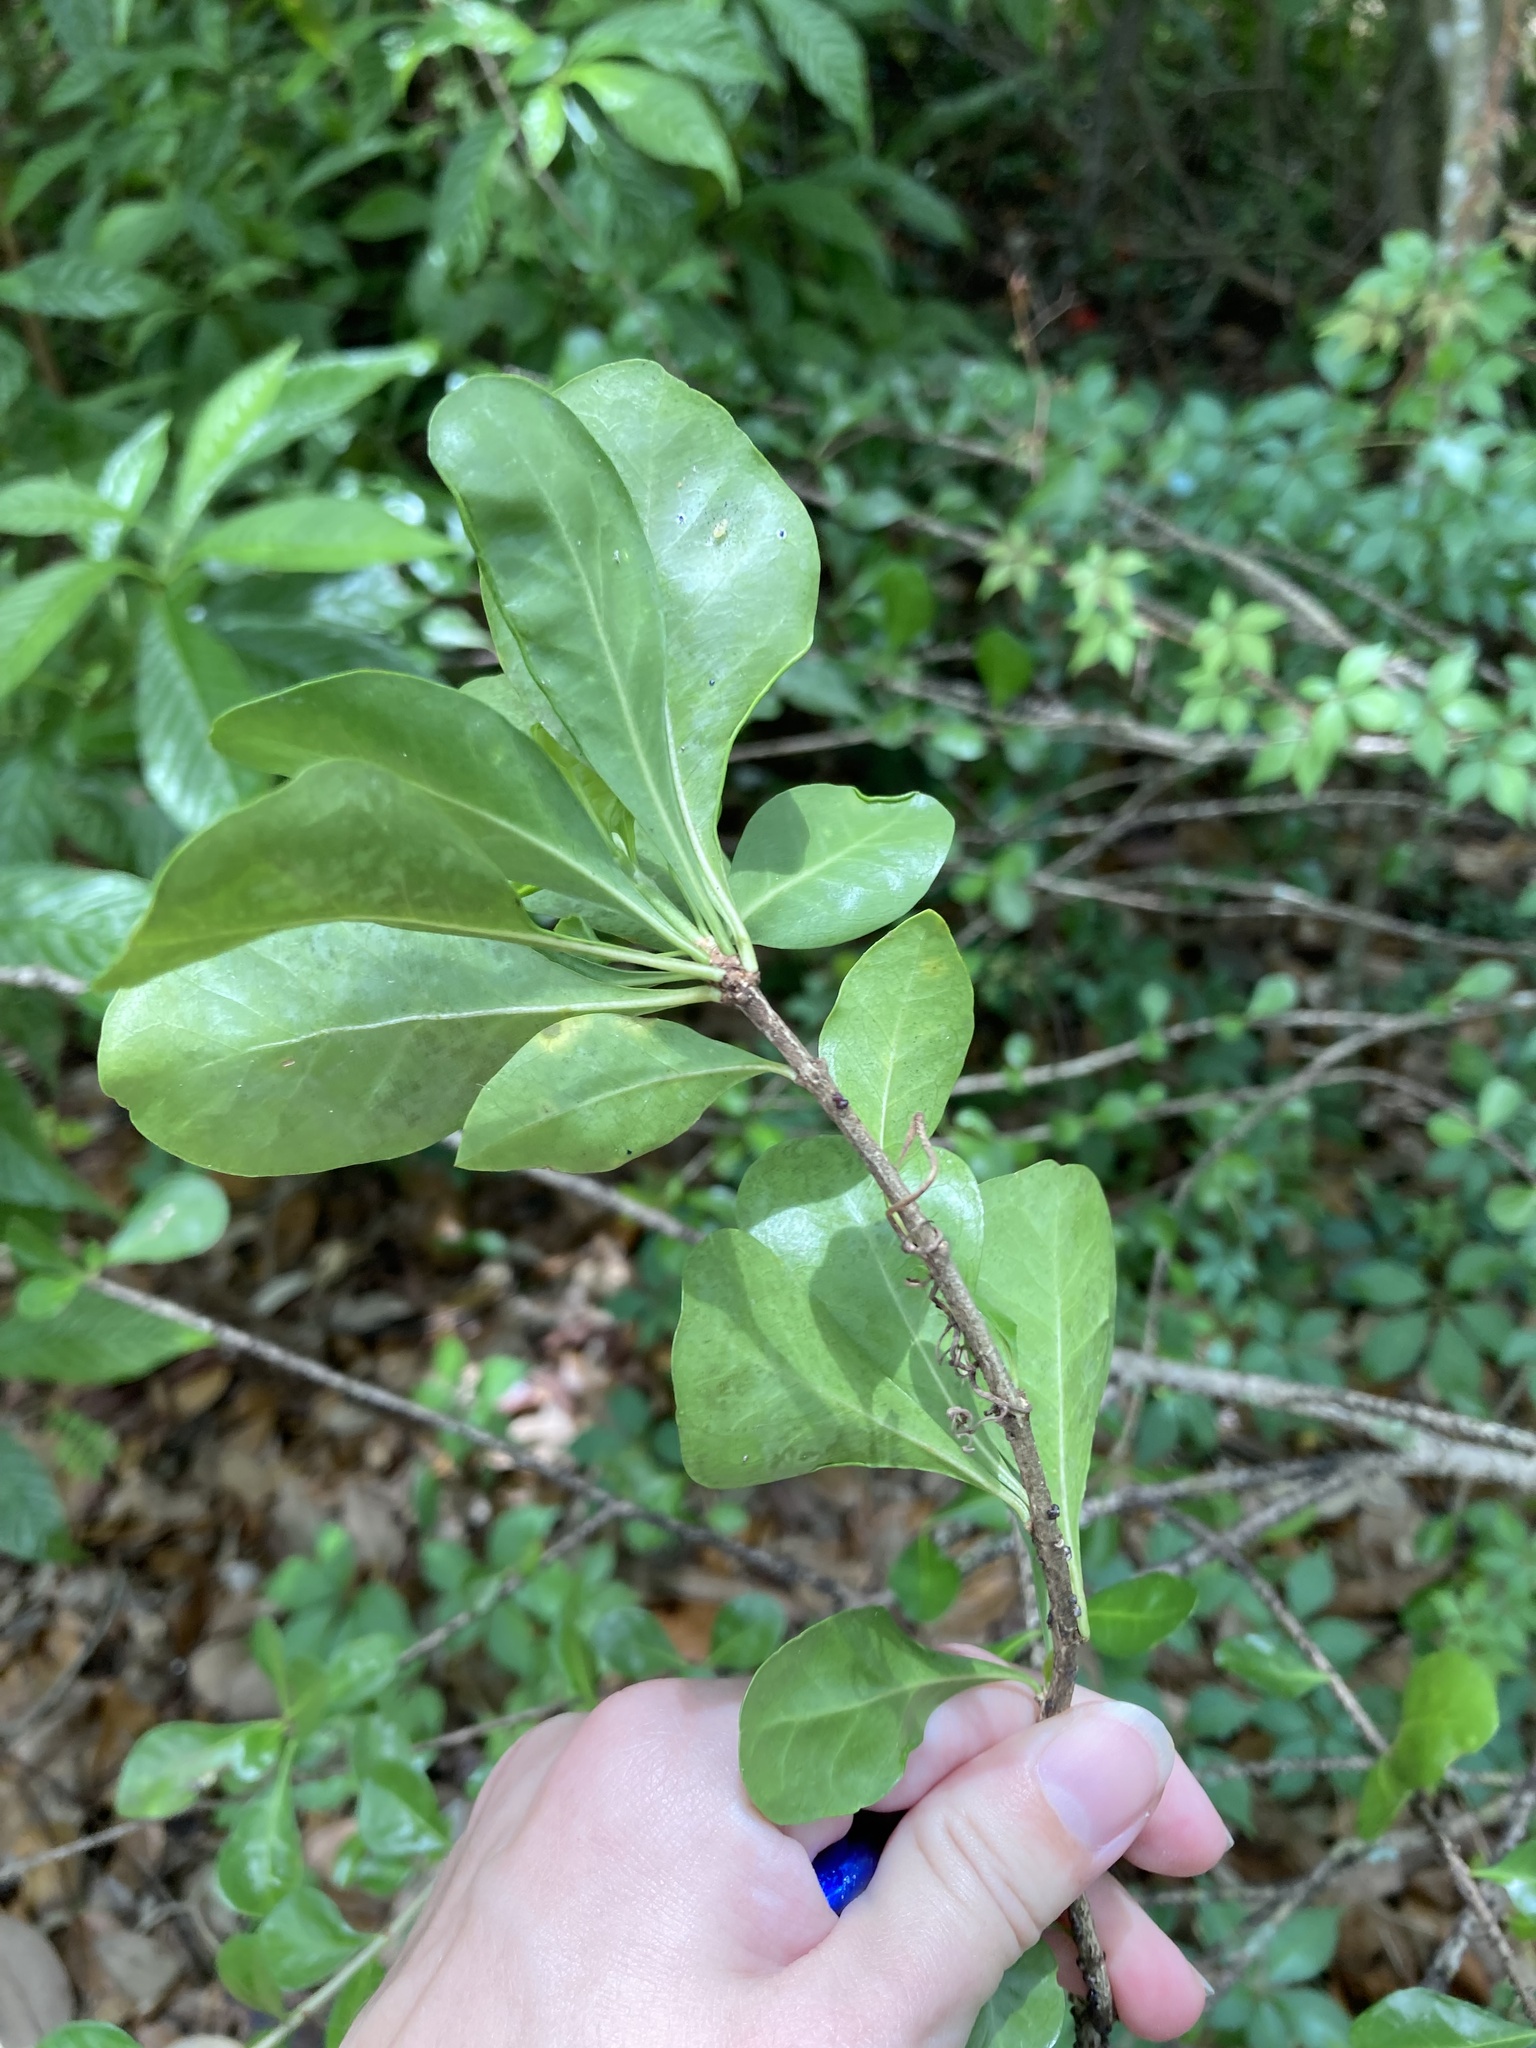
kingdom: Plantae
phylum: Tracheophyta
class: Magnoliopsida
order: Gentianales
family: Rubiaceae
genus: Randia
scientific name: Randia aculeata
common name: Inkberry
